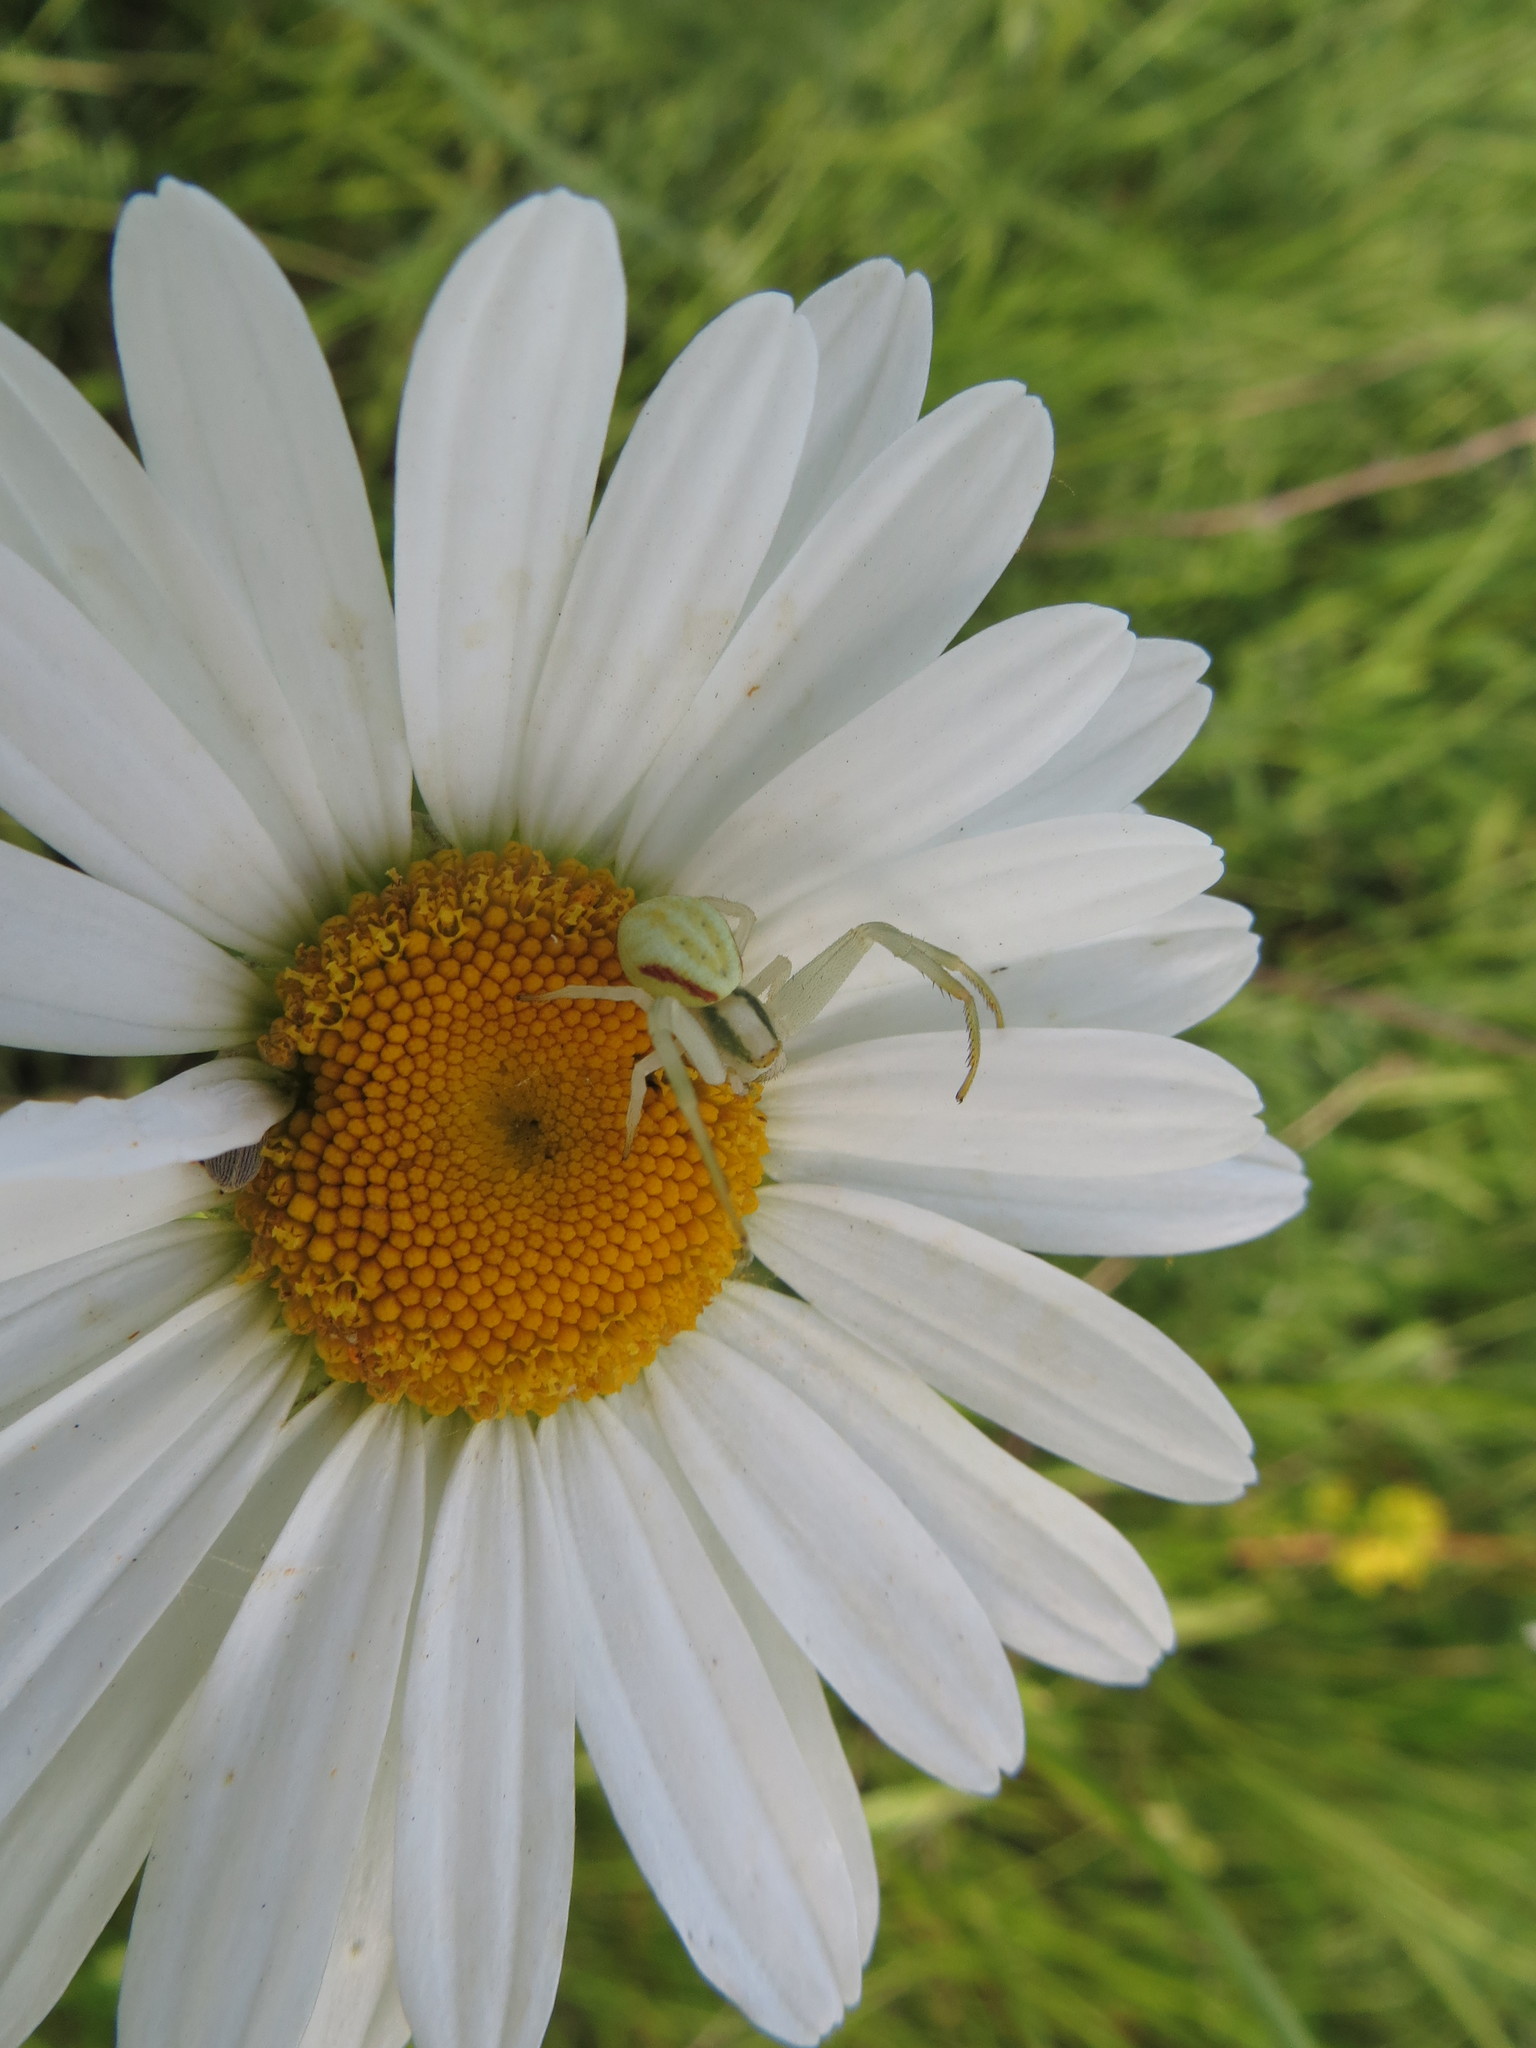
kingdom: Animalia
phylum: Arthropoda
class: Arachnida
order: Araneae
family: Thomisidae
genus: Misumena
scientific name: Misumena vatia
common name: Goldenrod crab spider
